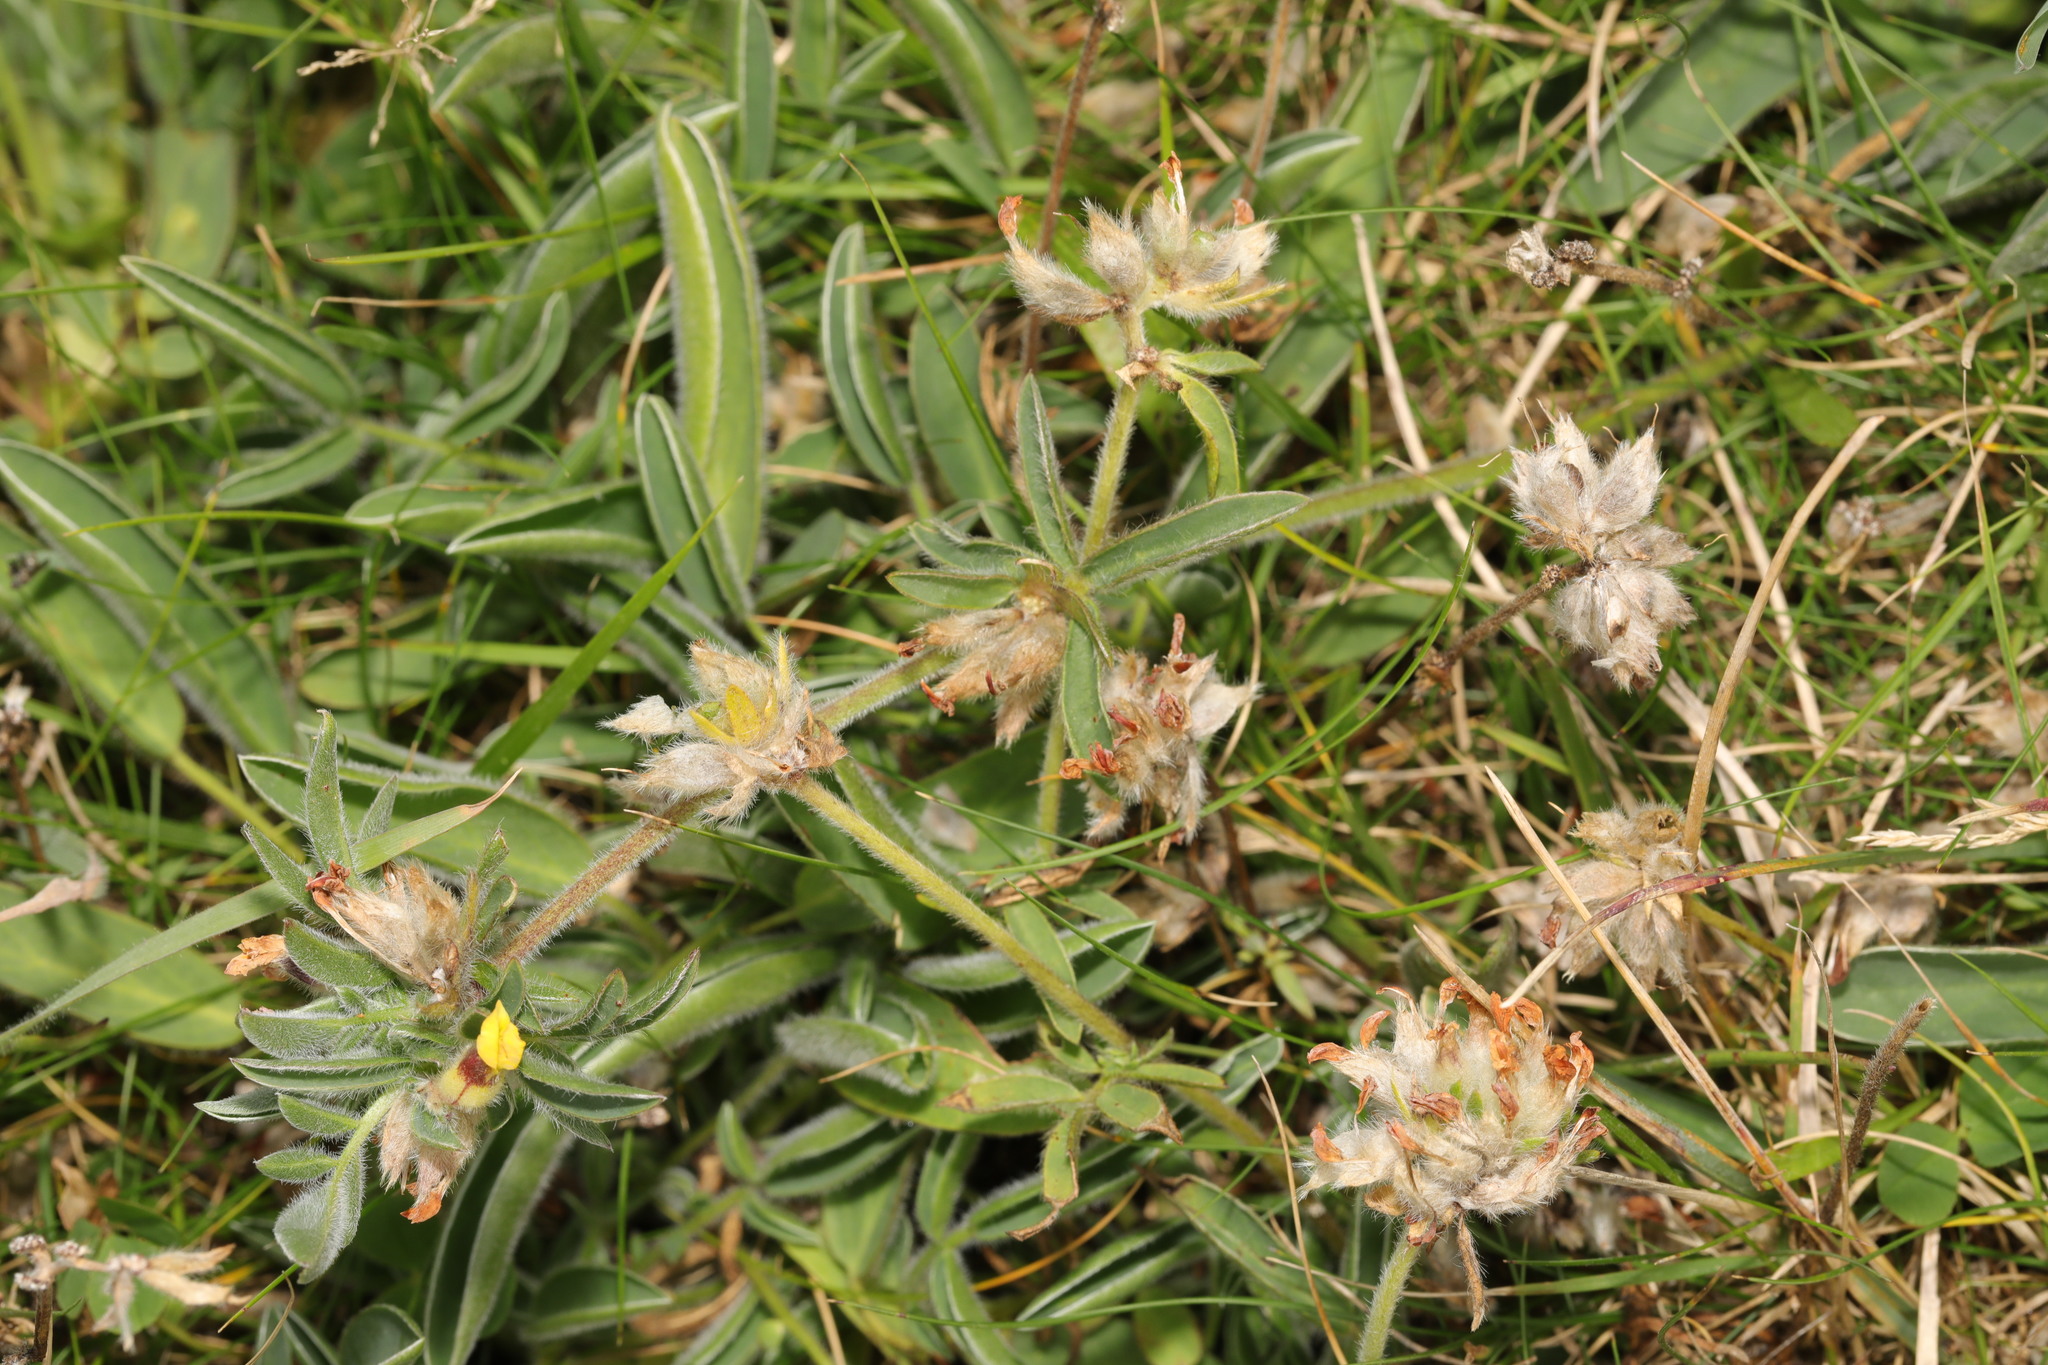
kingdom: Plantae
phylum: Tracheophyta
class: Magnoliopsida
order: Fabales
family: Fabaceae
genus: Anthyllis
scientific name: Anthyllis vulneraria
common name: Kidney vetch
